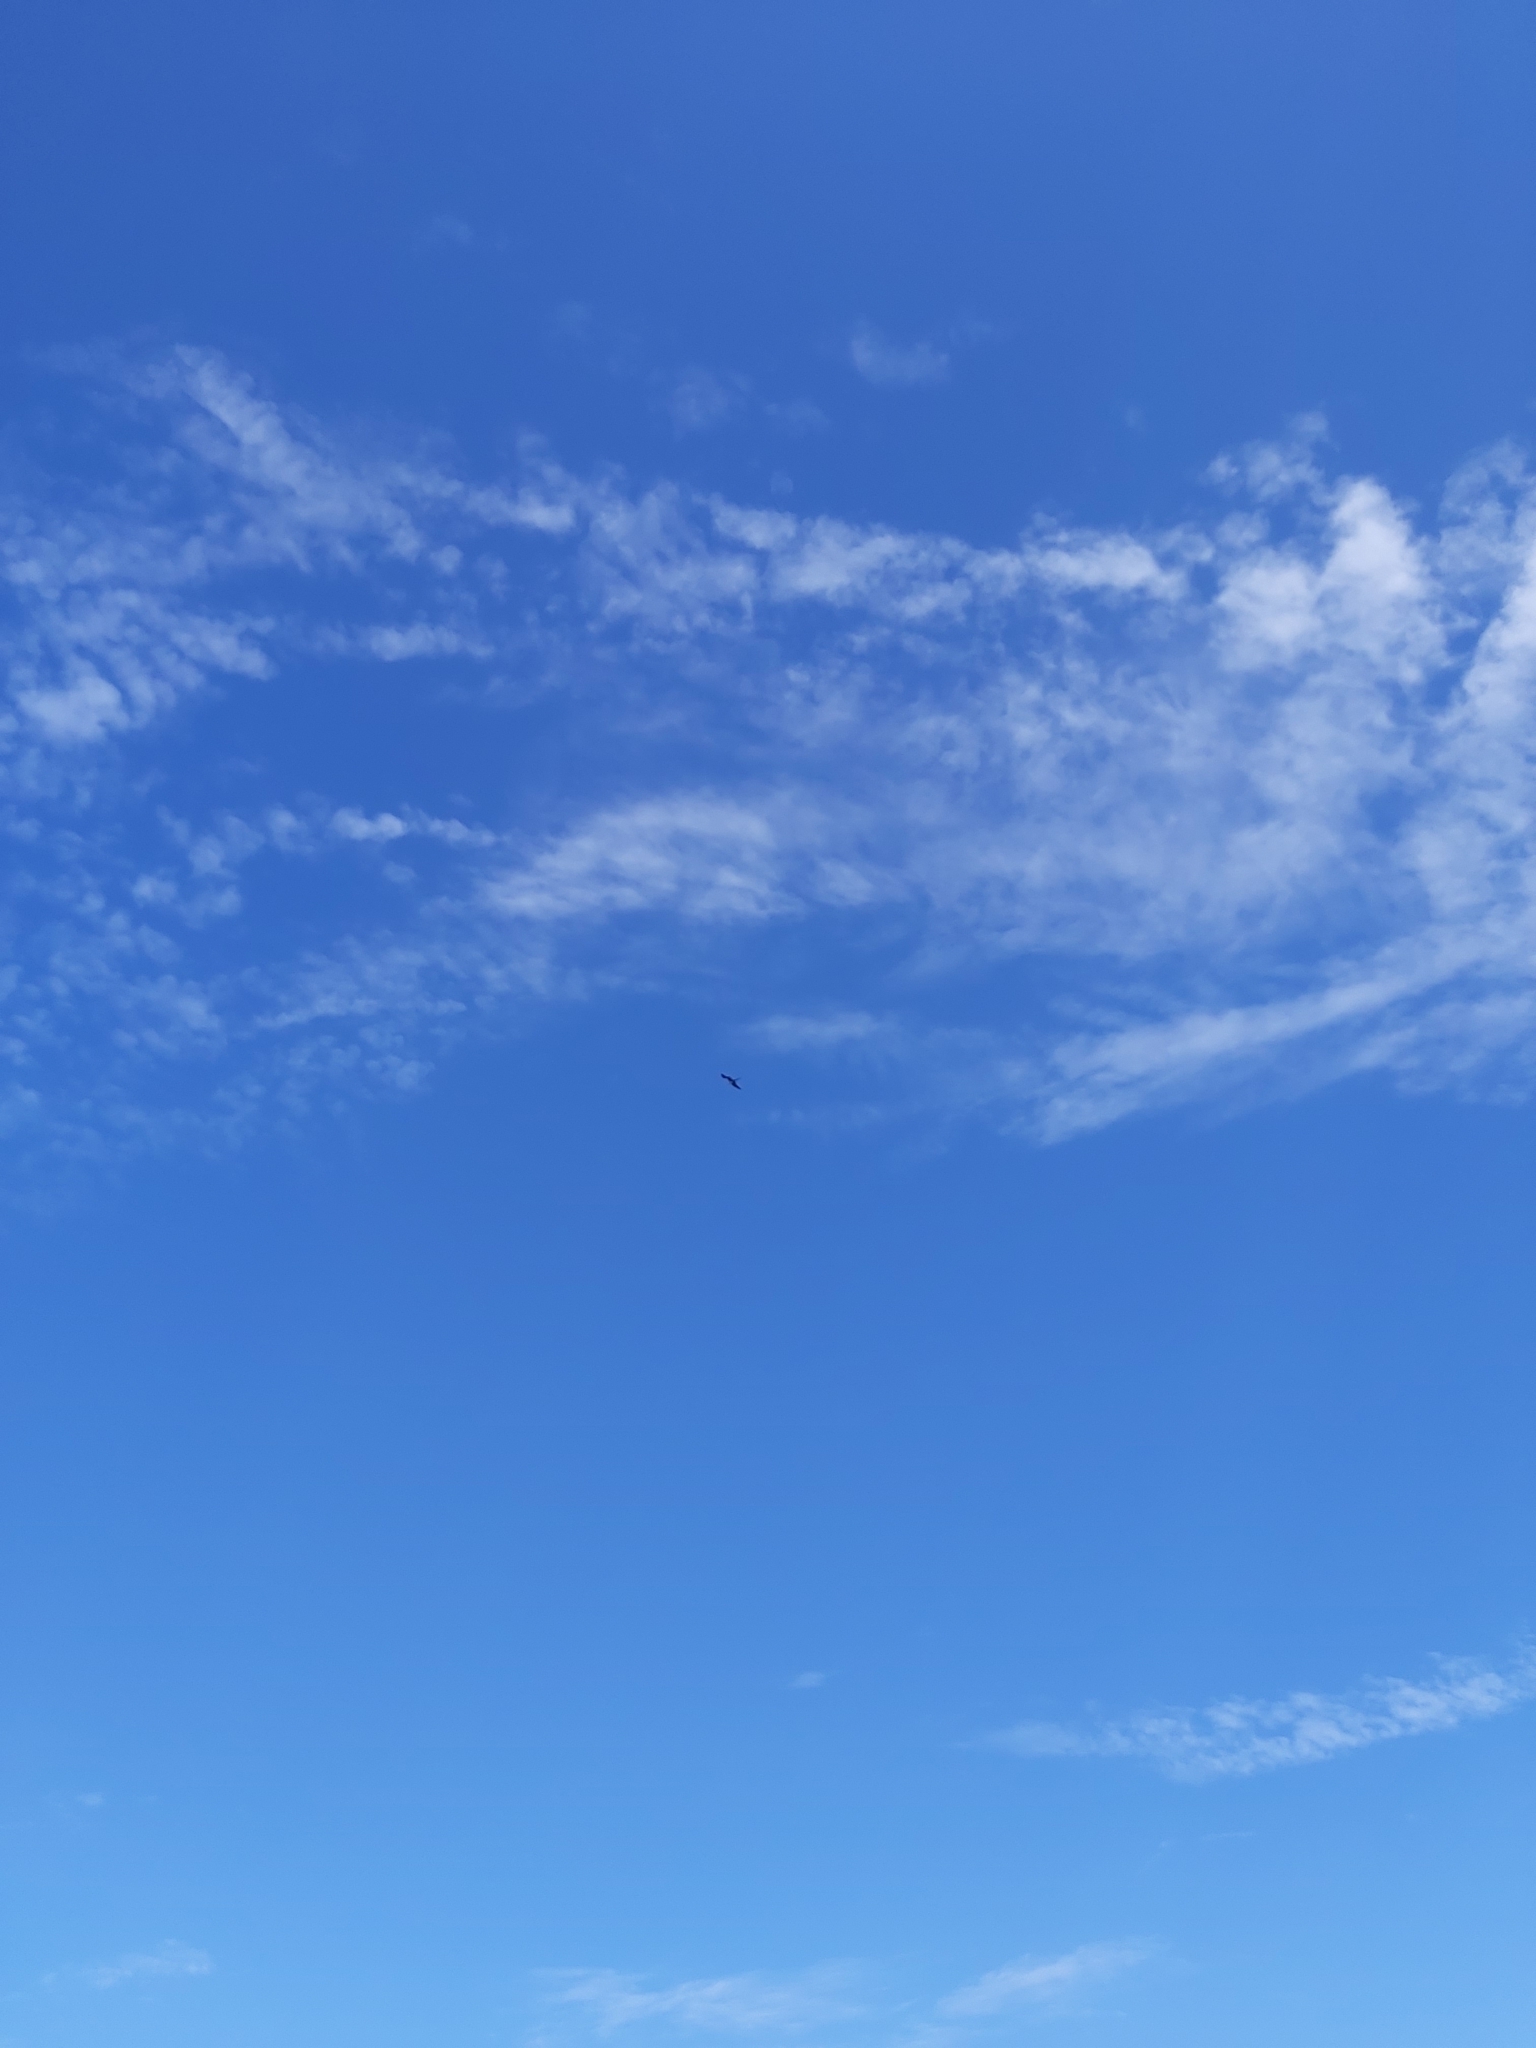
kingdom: Animalia
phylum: Chordata
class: Aves
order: Suliformes
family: Fregatidae
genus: Fregata
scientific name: Fregata magnificens
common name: Magnificent frigatebird
